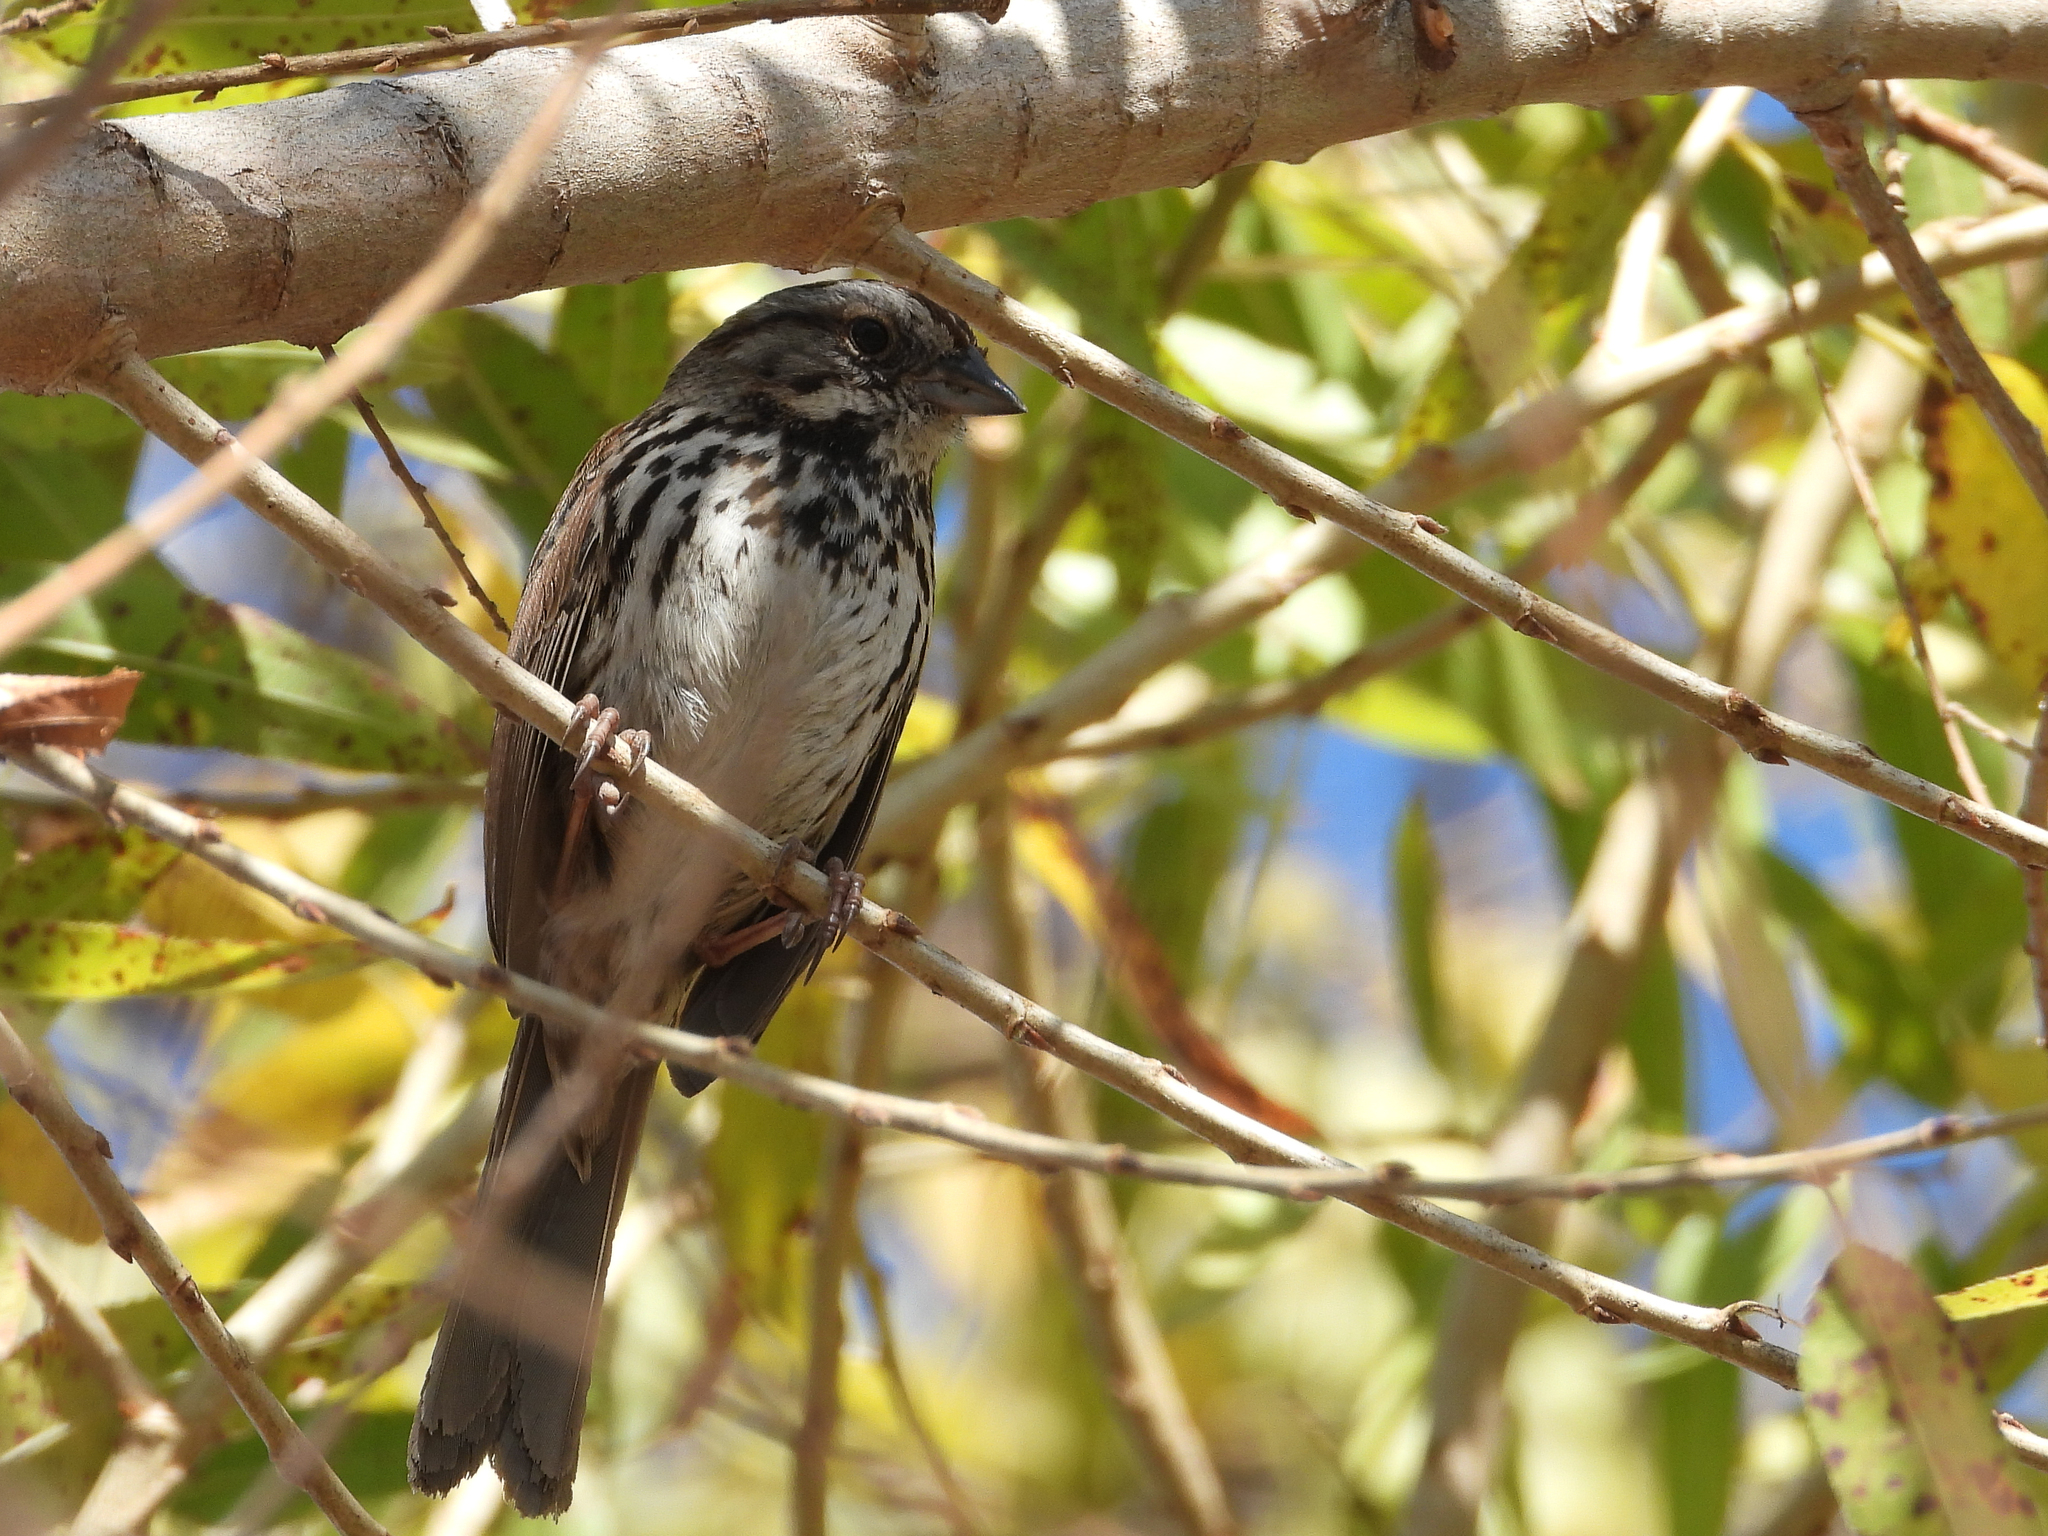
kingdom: Animalia
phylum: Chordata
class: Aves
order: Passeriformes
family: Passerellidae
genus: Melospiza
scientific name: Melospiza melodia
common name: Song sparrow
